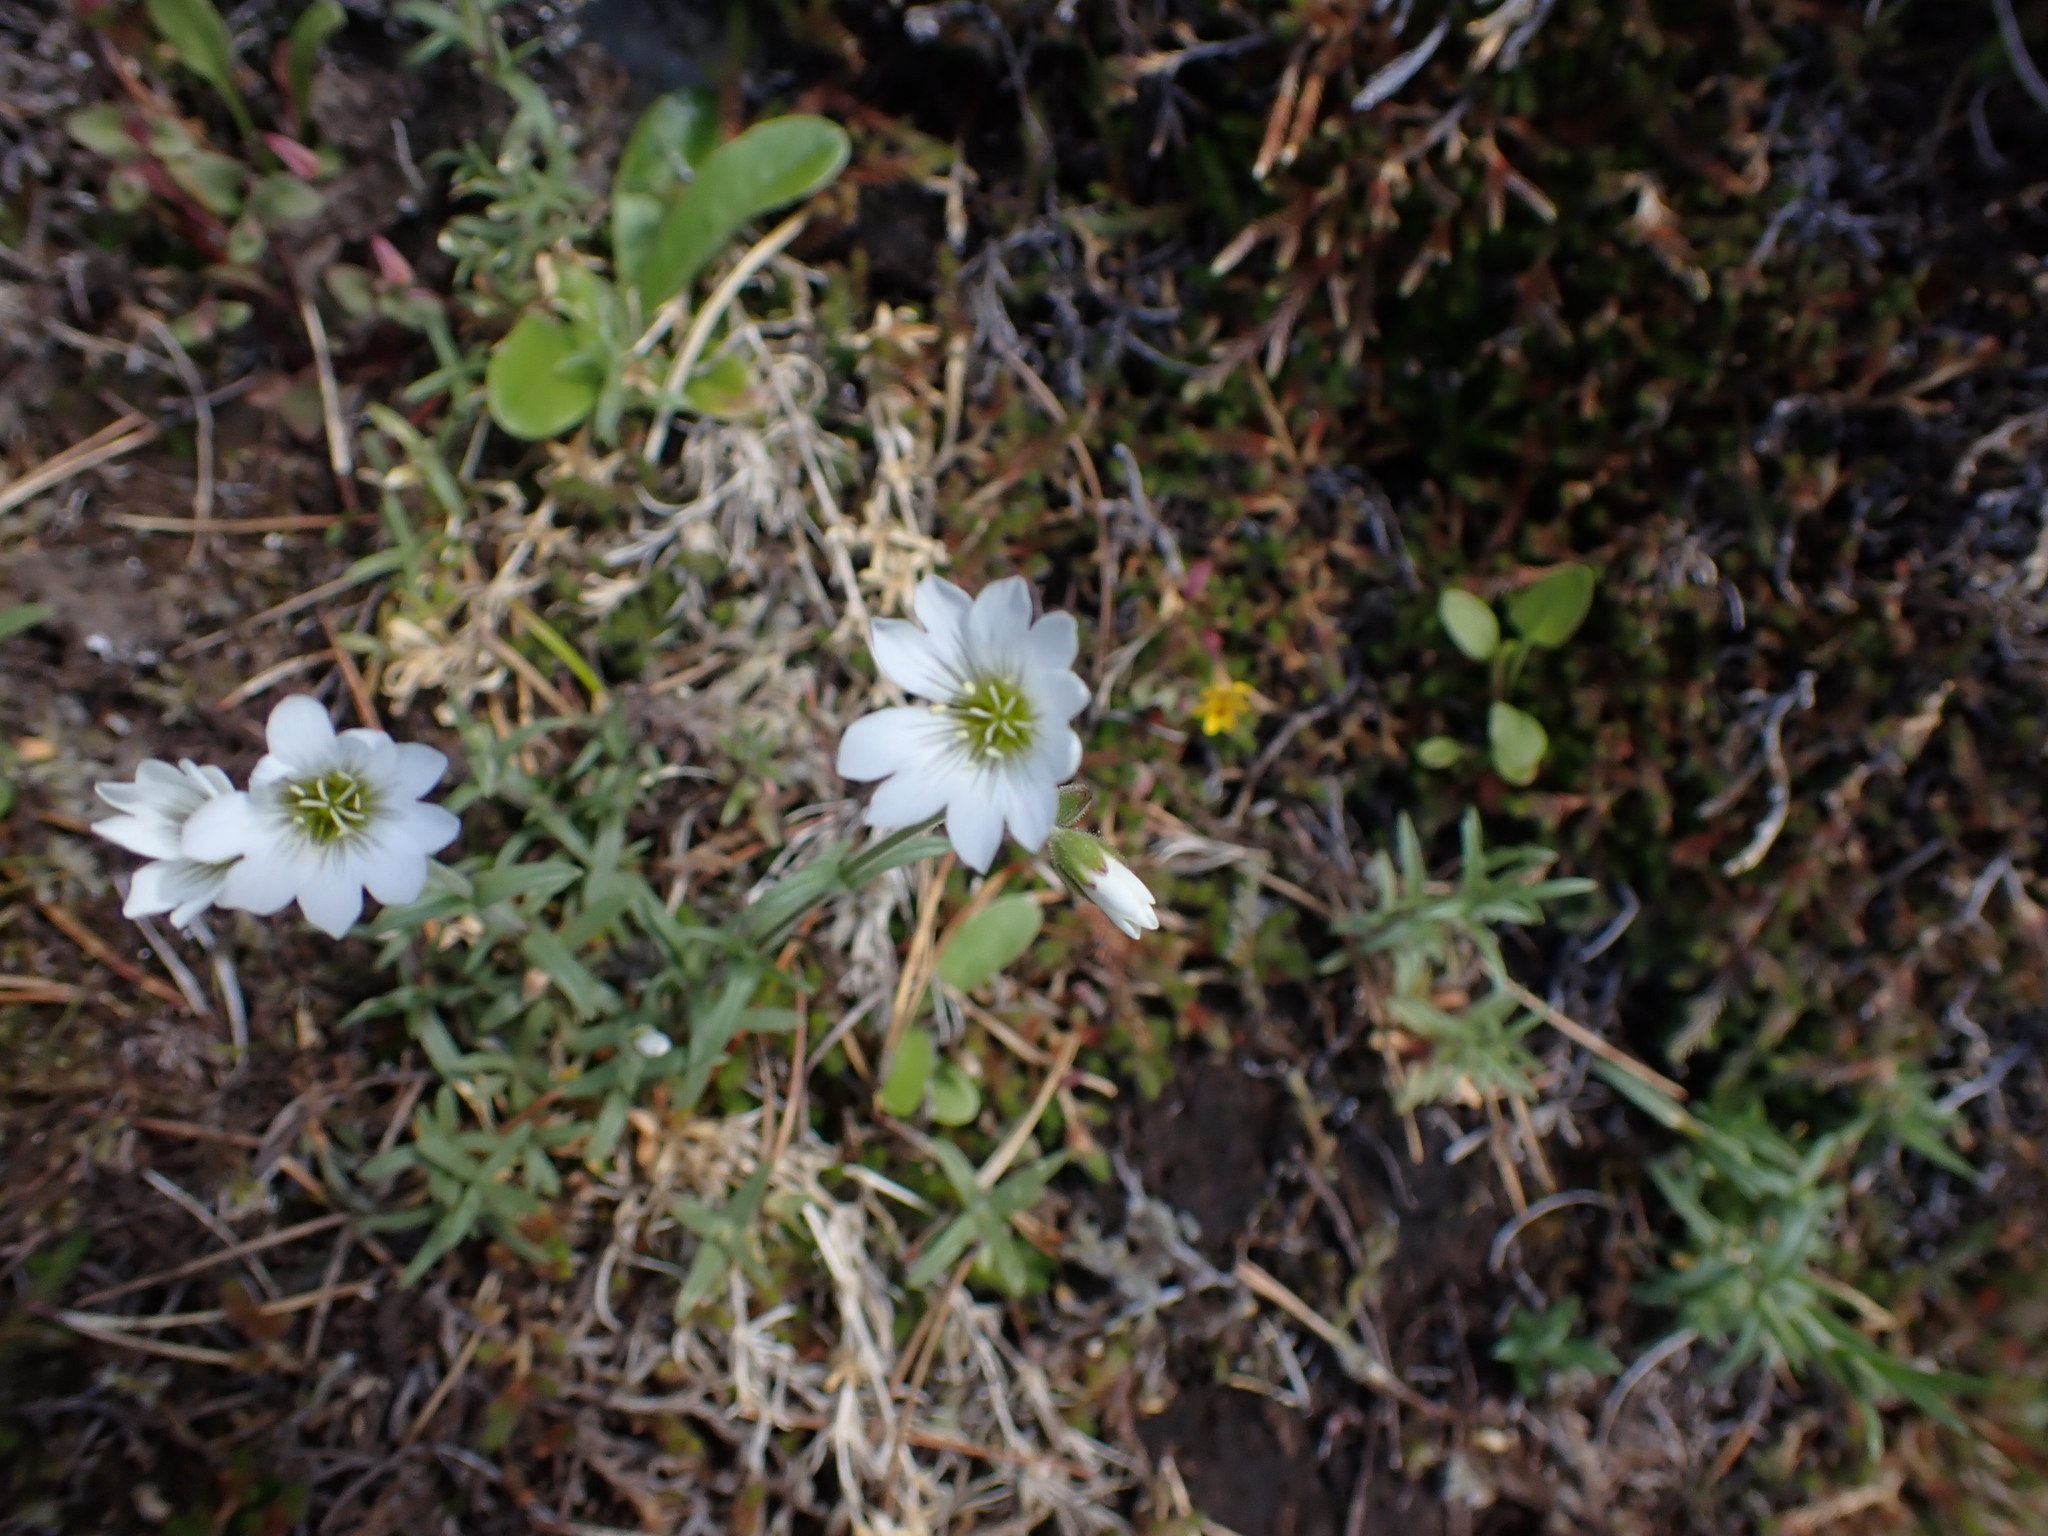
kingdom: Plantae
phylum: Tracheophyta
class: Magnoliopsida
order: Caryophyllales
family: Caryophyllaceae
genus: Cerastium
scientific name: Cerastium arvense
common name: Field mouse-ear
